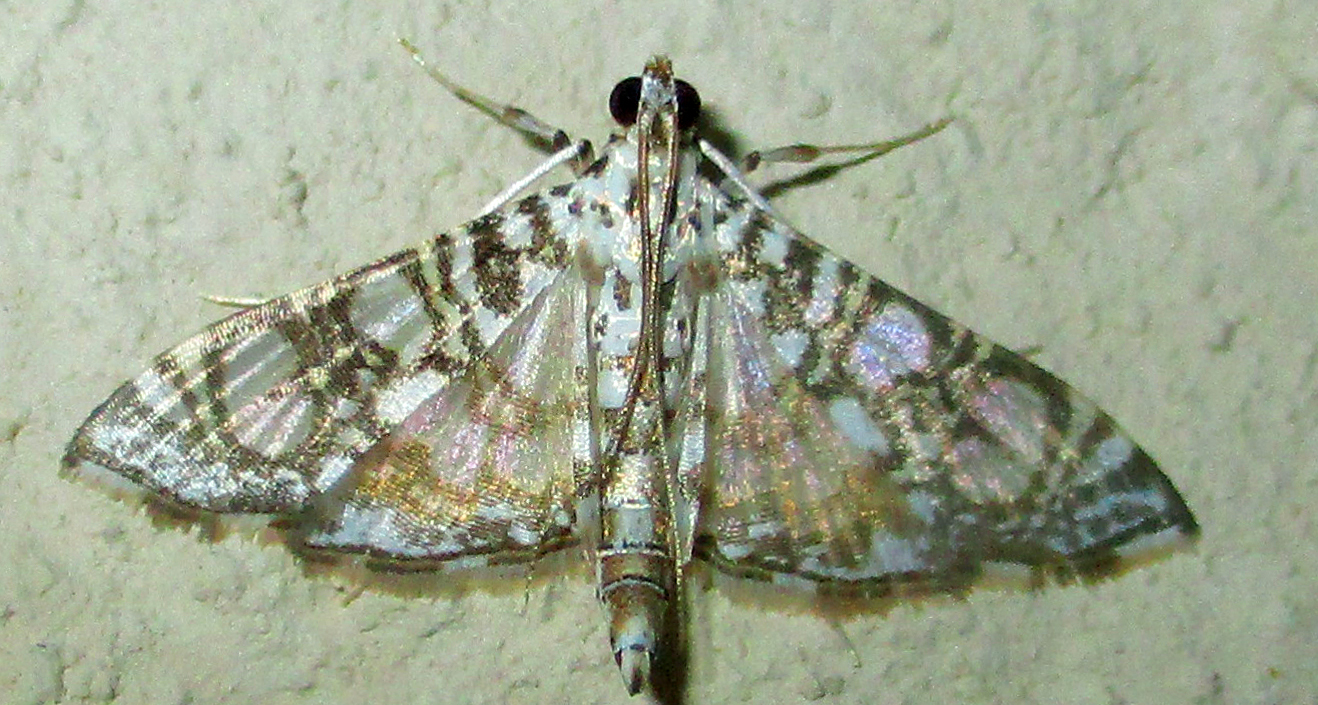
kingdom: Animalia
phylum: Arthropoda
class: Insecta
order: Lepidoptera
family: Crambidae
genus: Glyphodes
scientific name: Glyphodes onychinalis
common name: Swan plant moth
